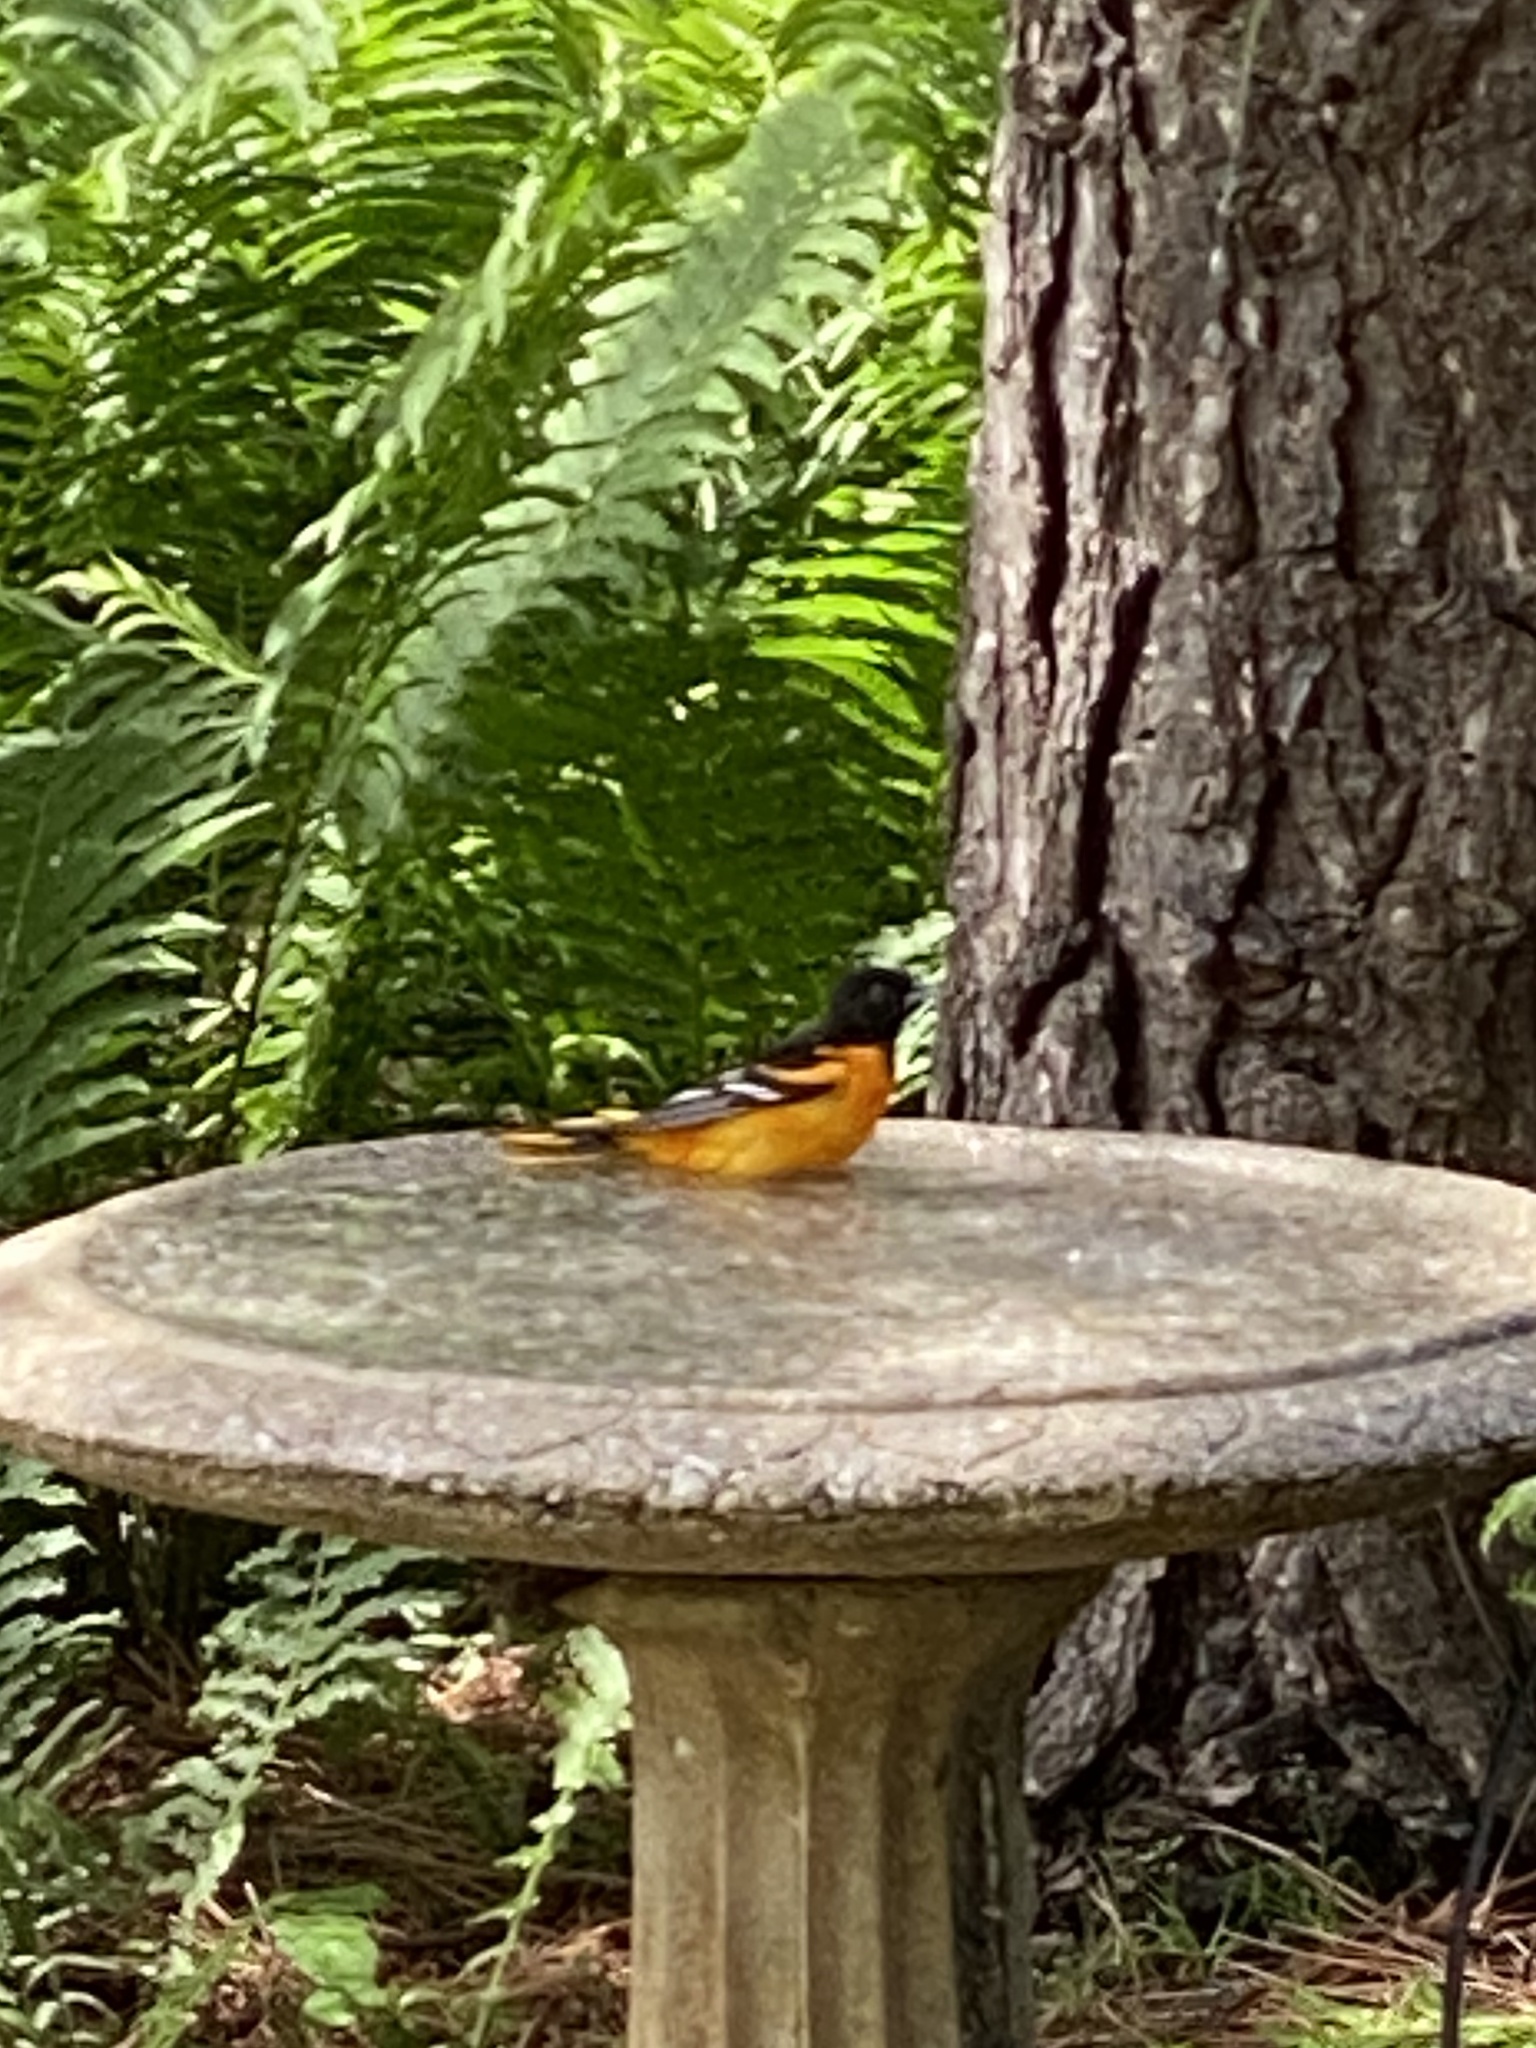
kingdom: Animalia
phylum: Chordata
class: Aves
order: Passeriformes
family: Icteridae
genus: Icterus
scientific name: Icterus galbula
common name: Baltimore oriole
